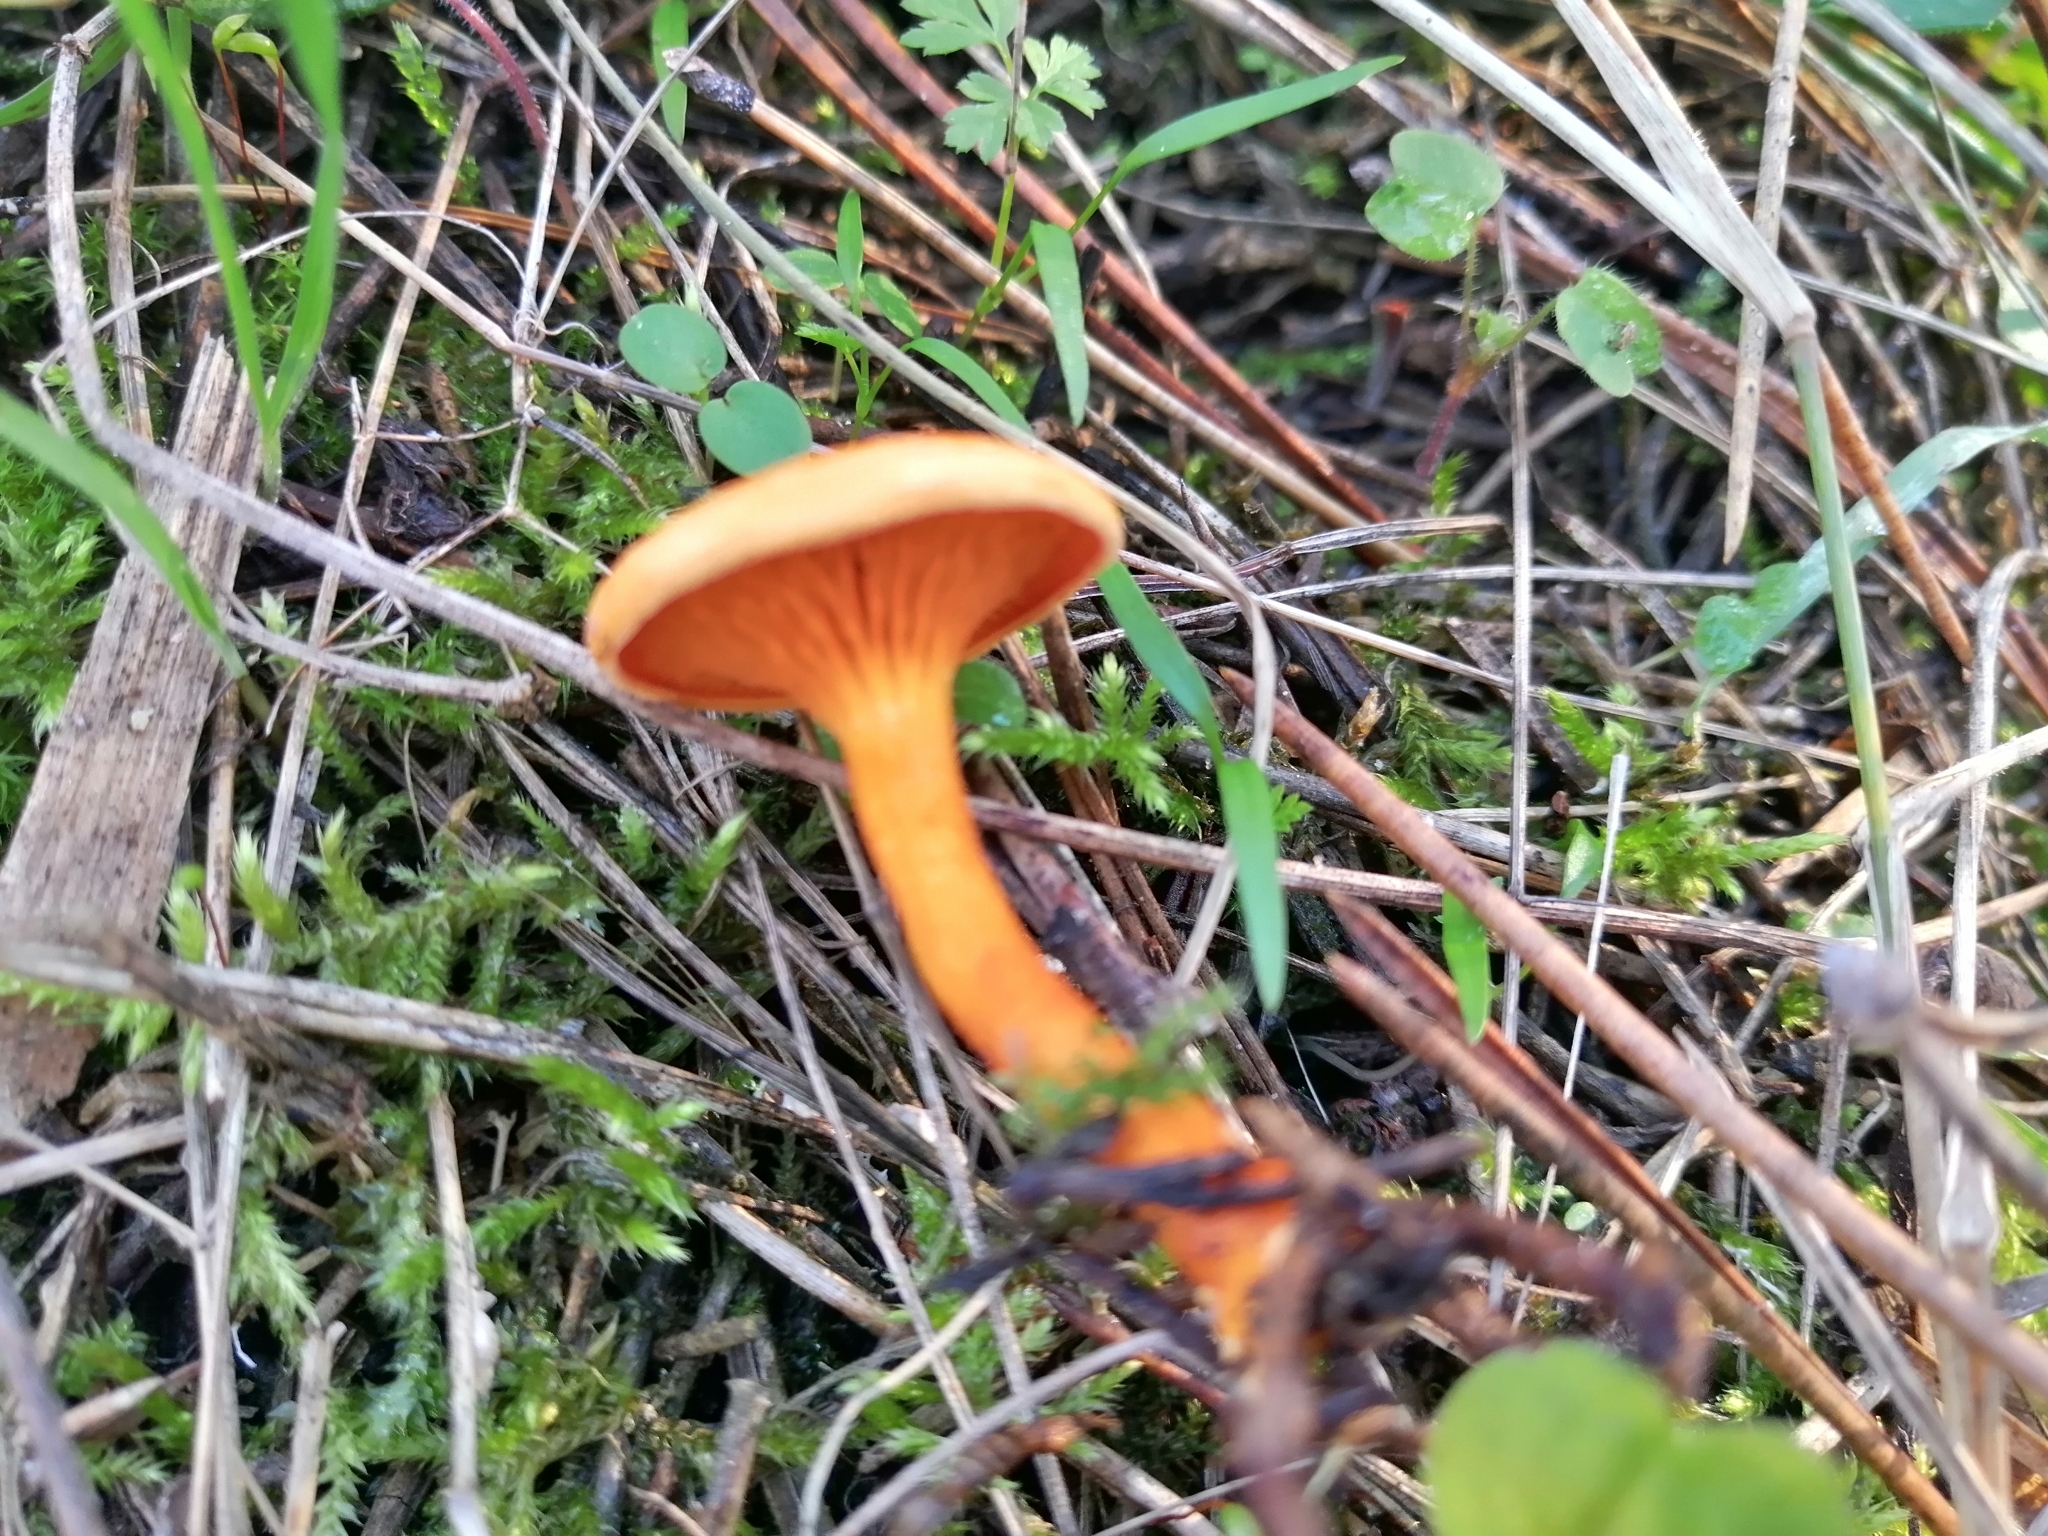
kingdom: Fungi
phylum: Basidiomycota
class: Agaricomycetes
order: Boletales
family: Hygrophoropsidaceae
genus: Hygrophoropsis
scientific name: Hygrophoropsis aurantiaca
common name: False chanterelle
